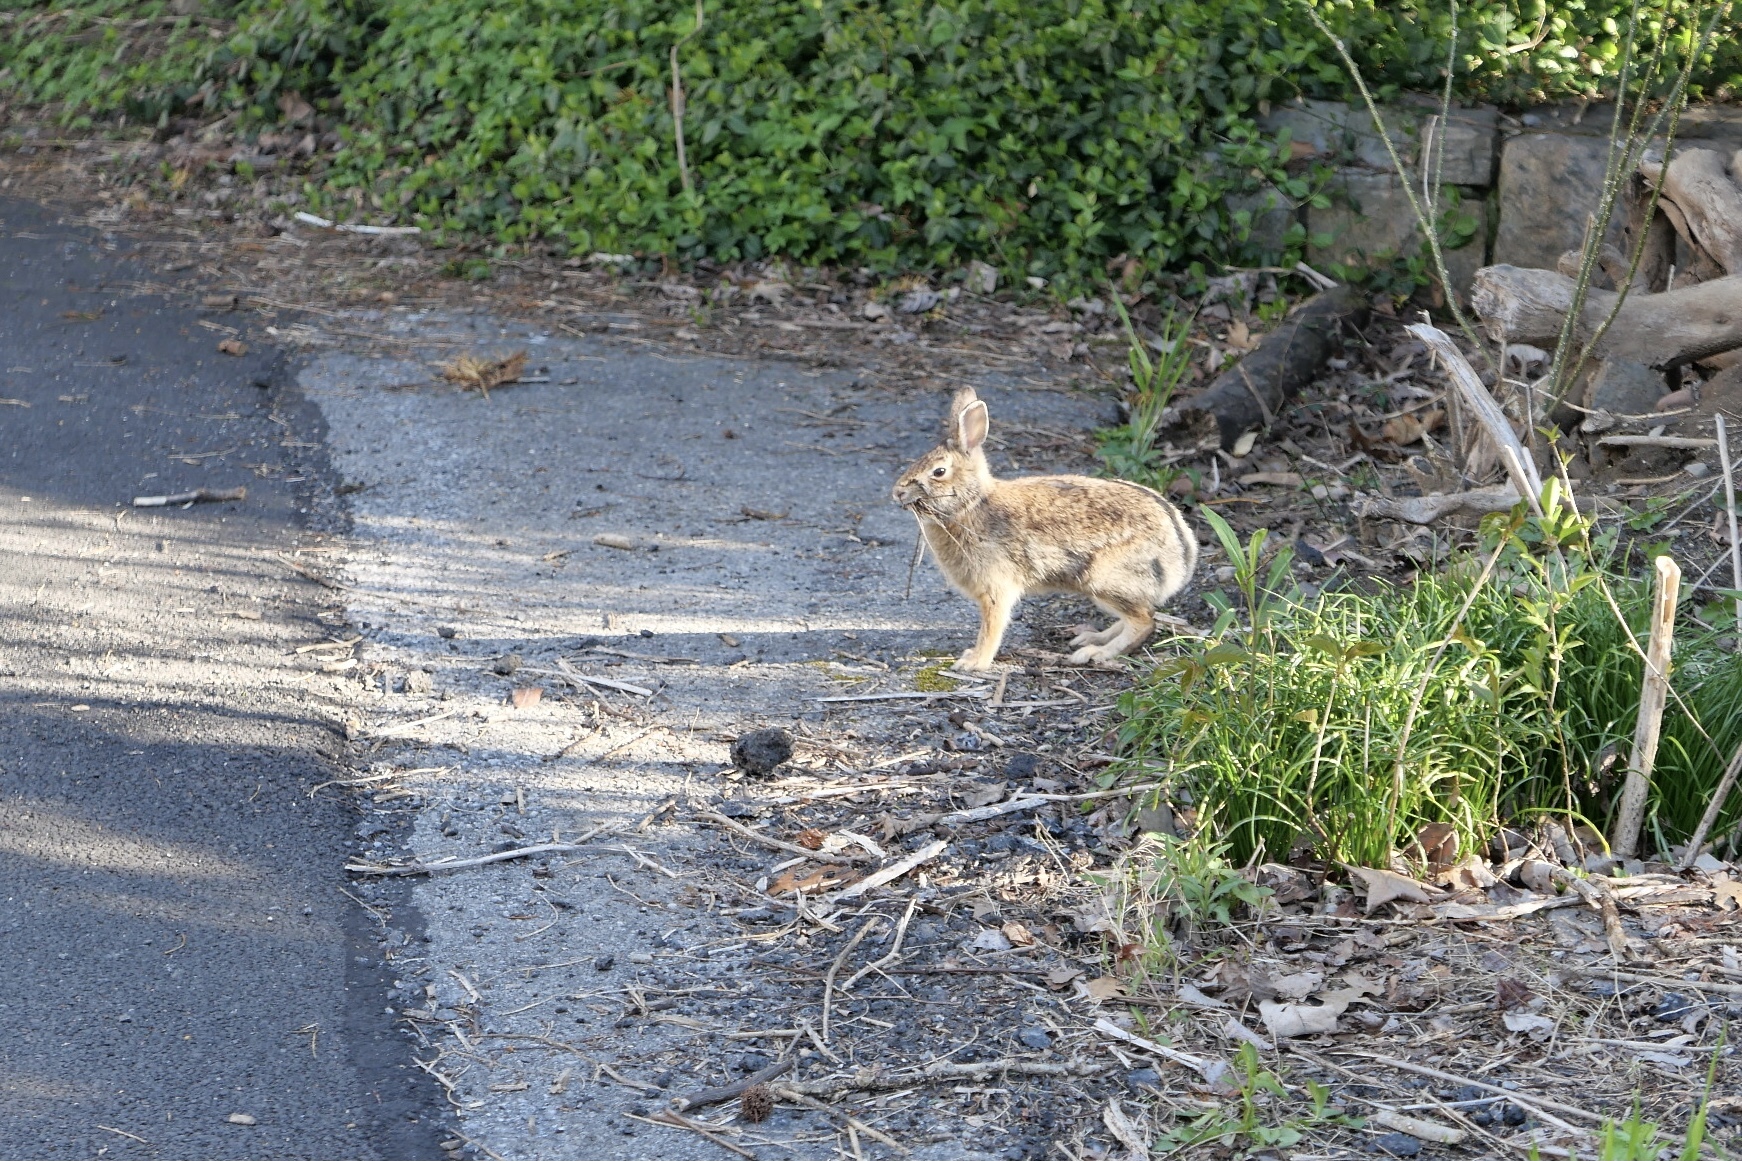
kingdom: Animalia
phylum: Chordata
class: Mammalia
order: Lagomorpha
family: Leporidae
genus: Sylvilagus
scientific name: Sylvilagus floridanus
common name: Eastern cottontail
